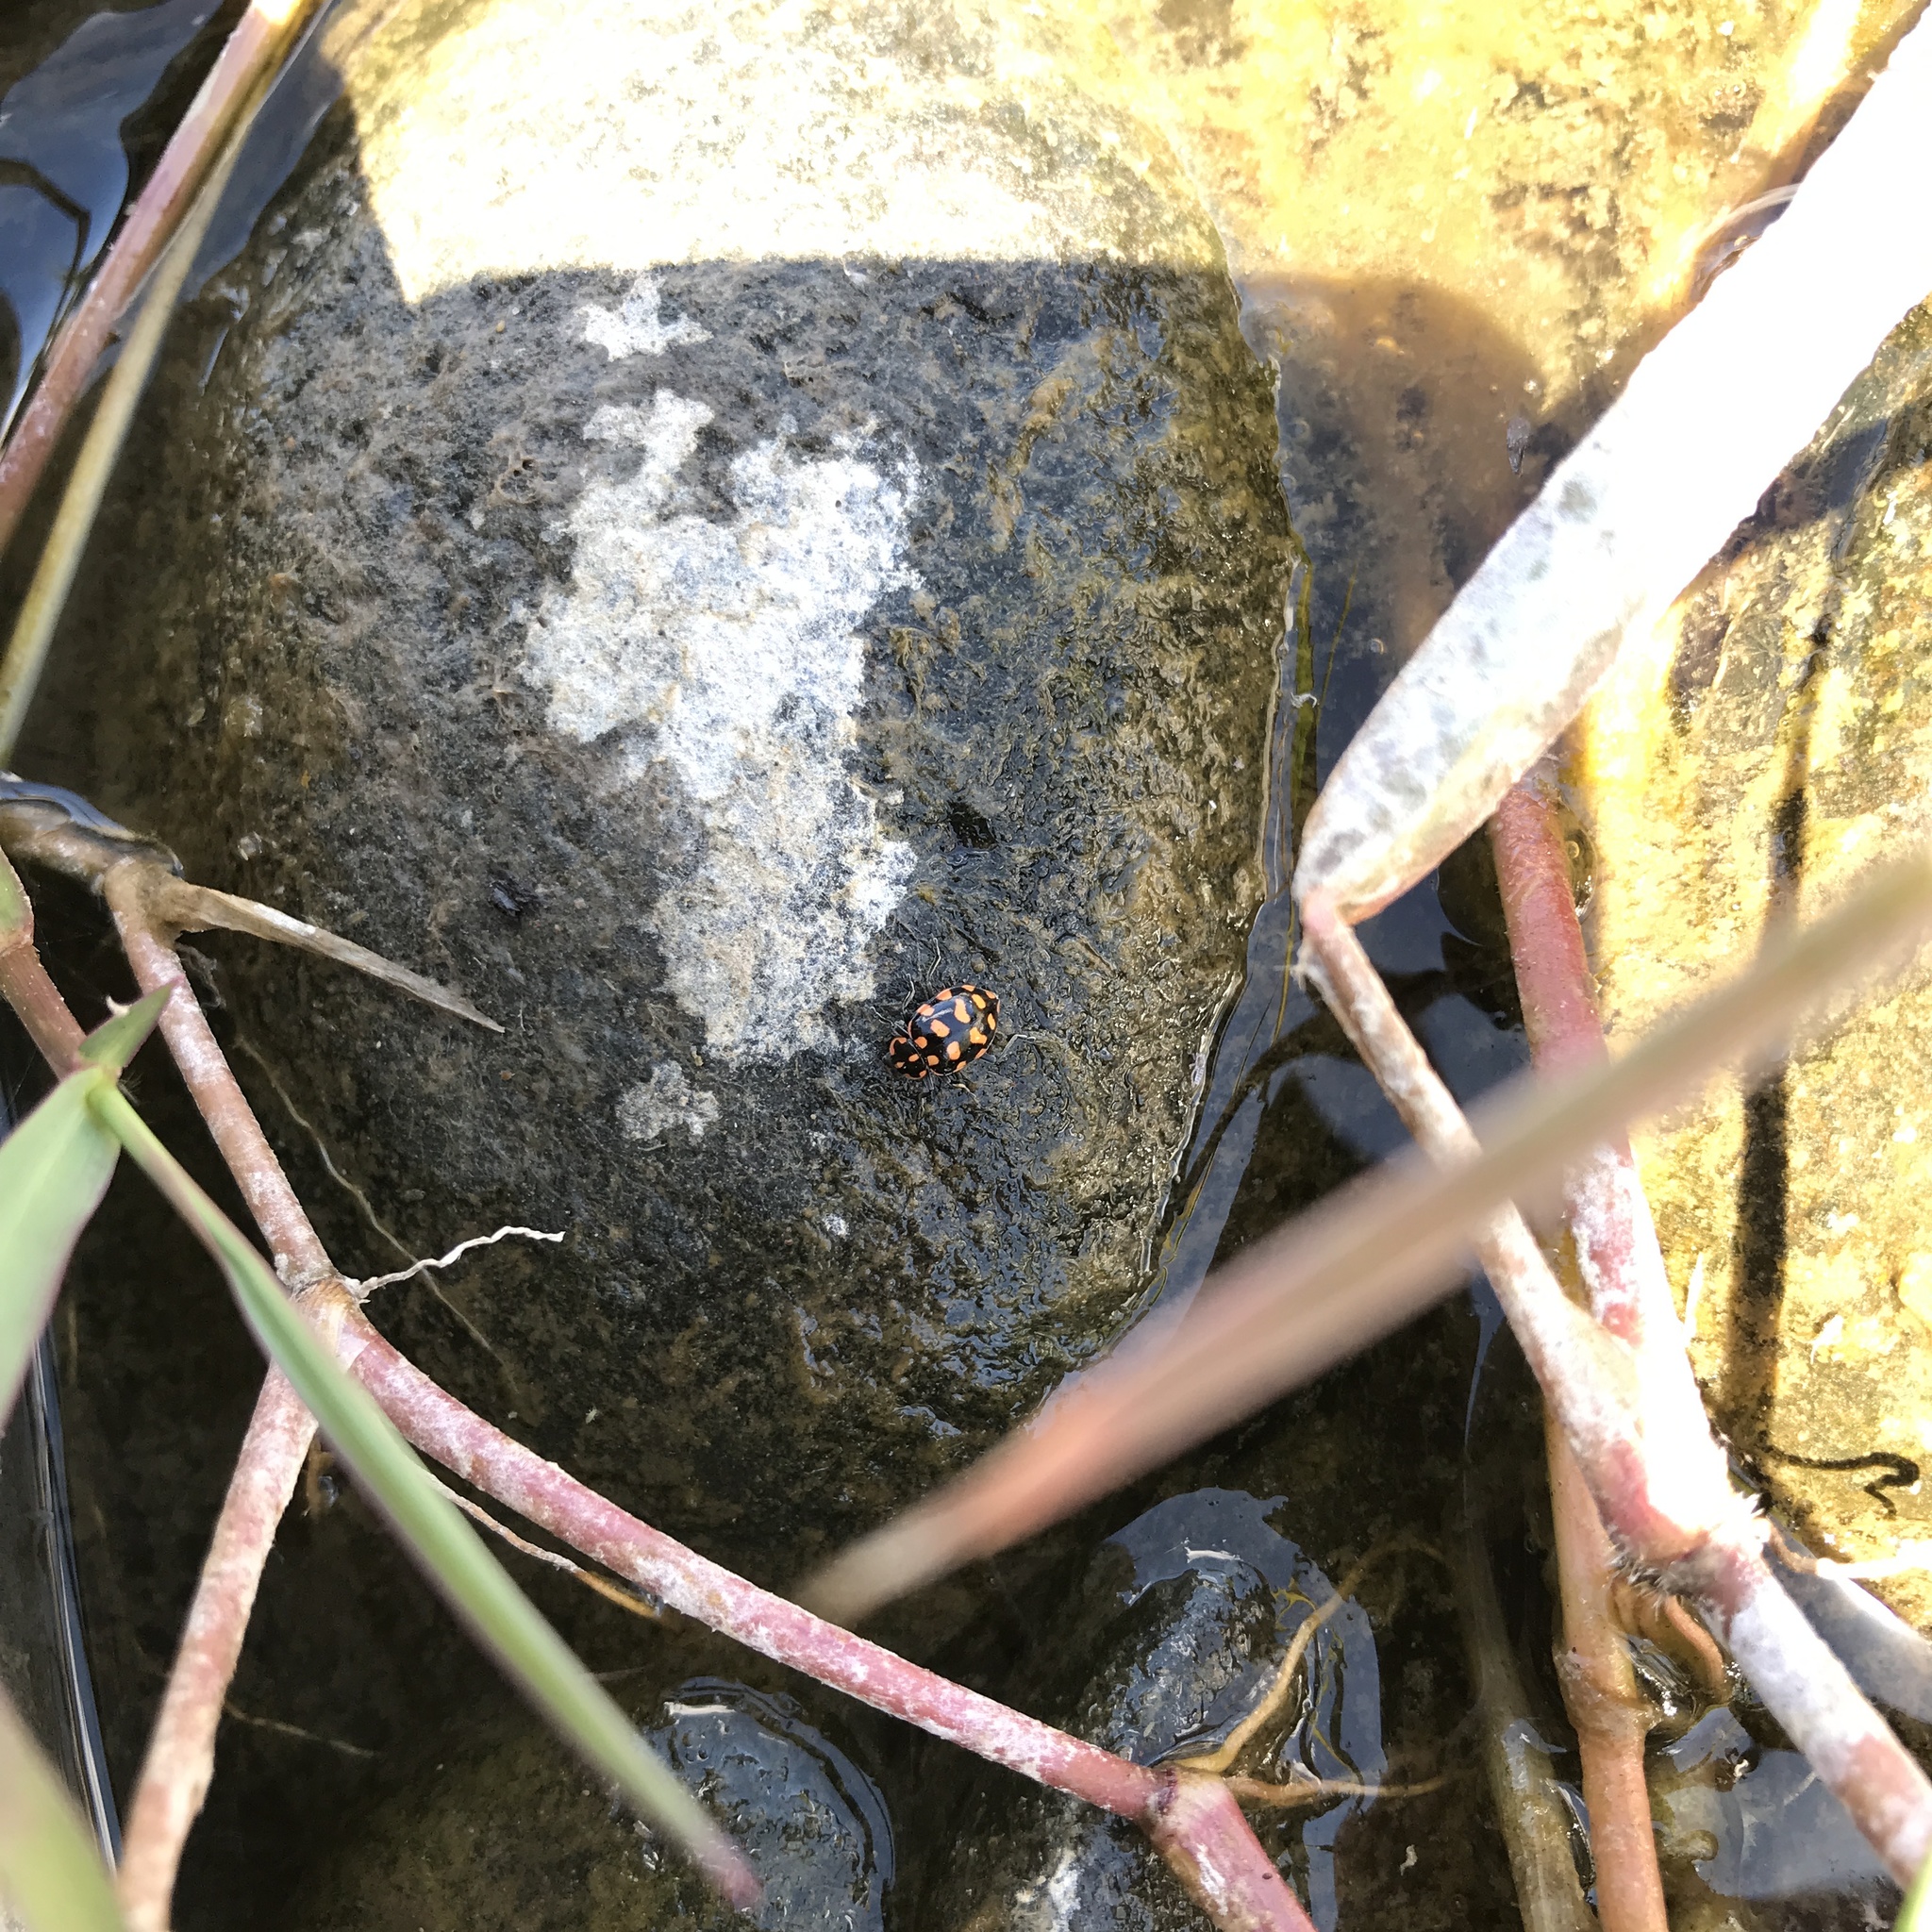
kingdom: Animalia
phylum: Arthropoda
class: Insecta
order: Coleoptera
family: Coccinellidae
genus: Coleomegilla
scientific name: Coleomegilla
